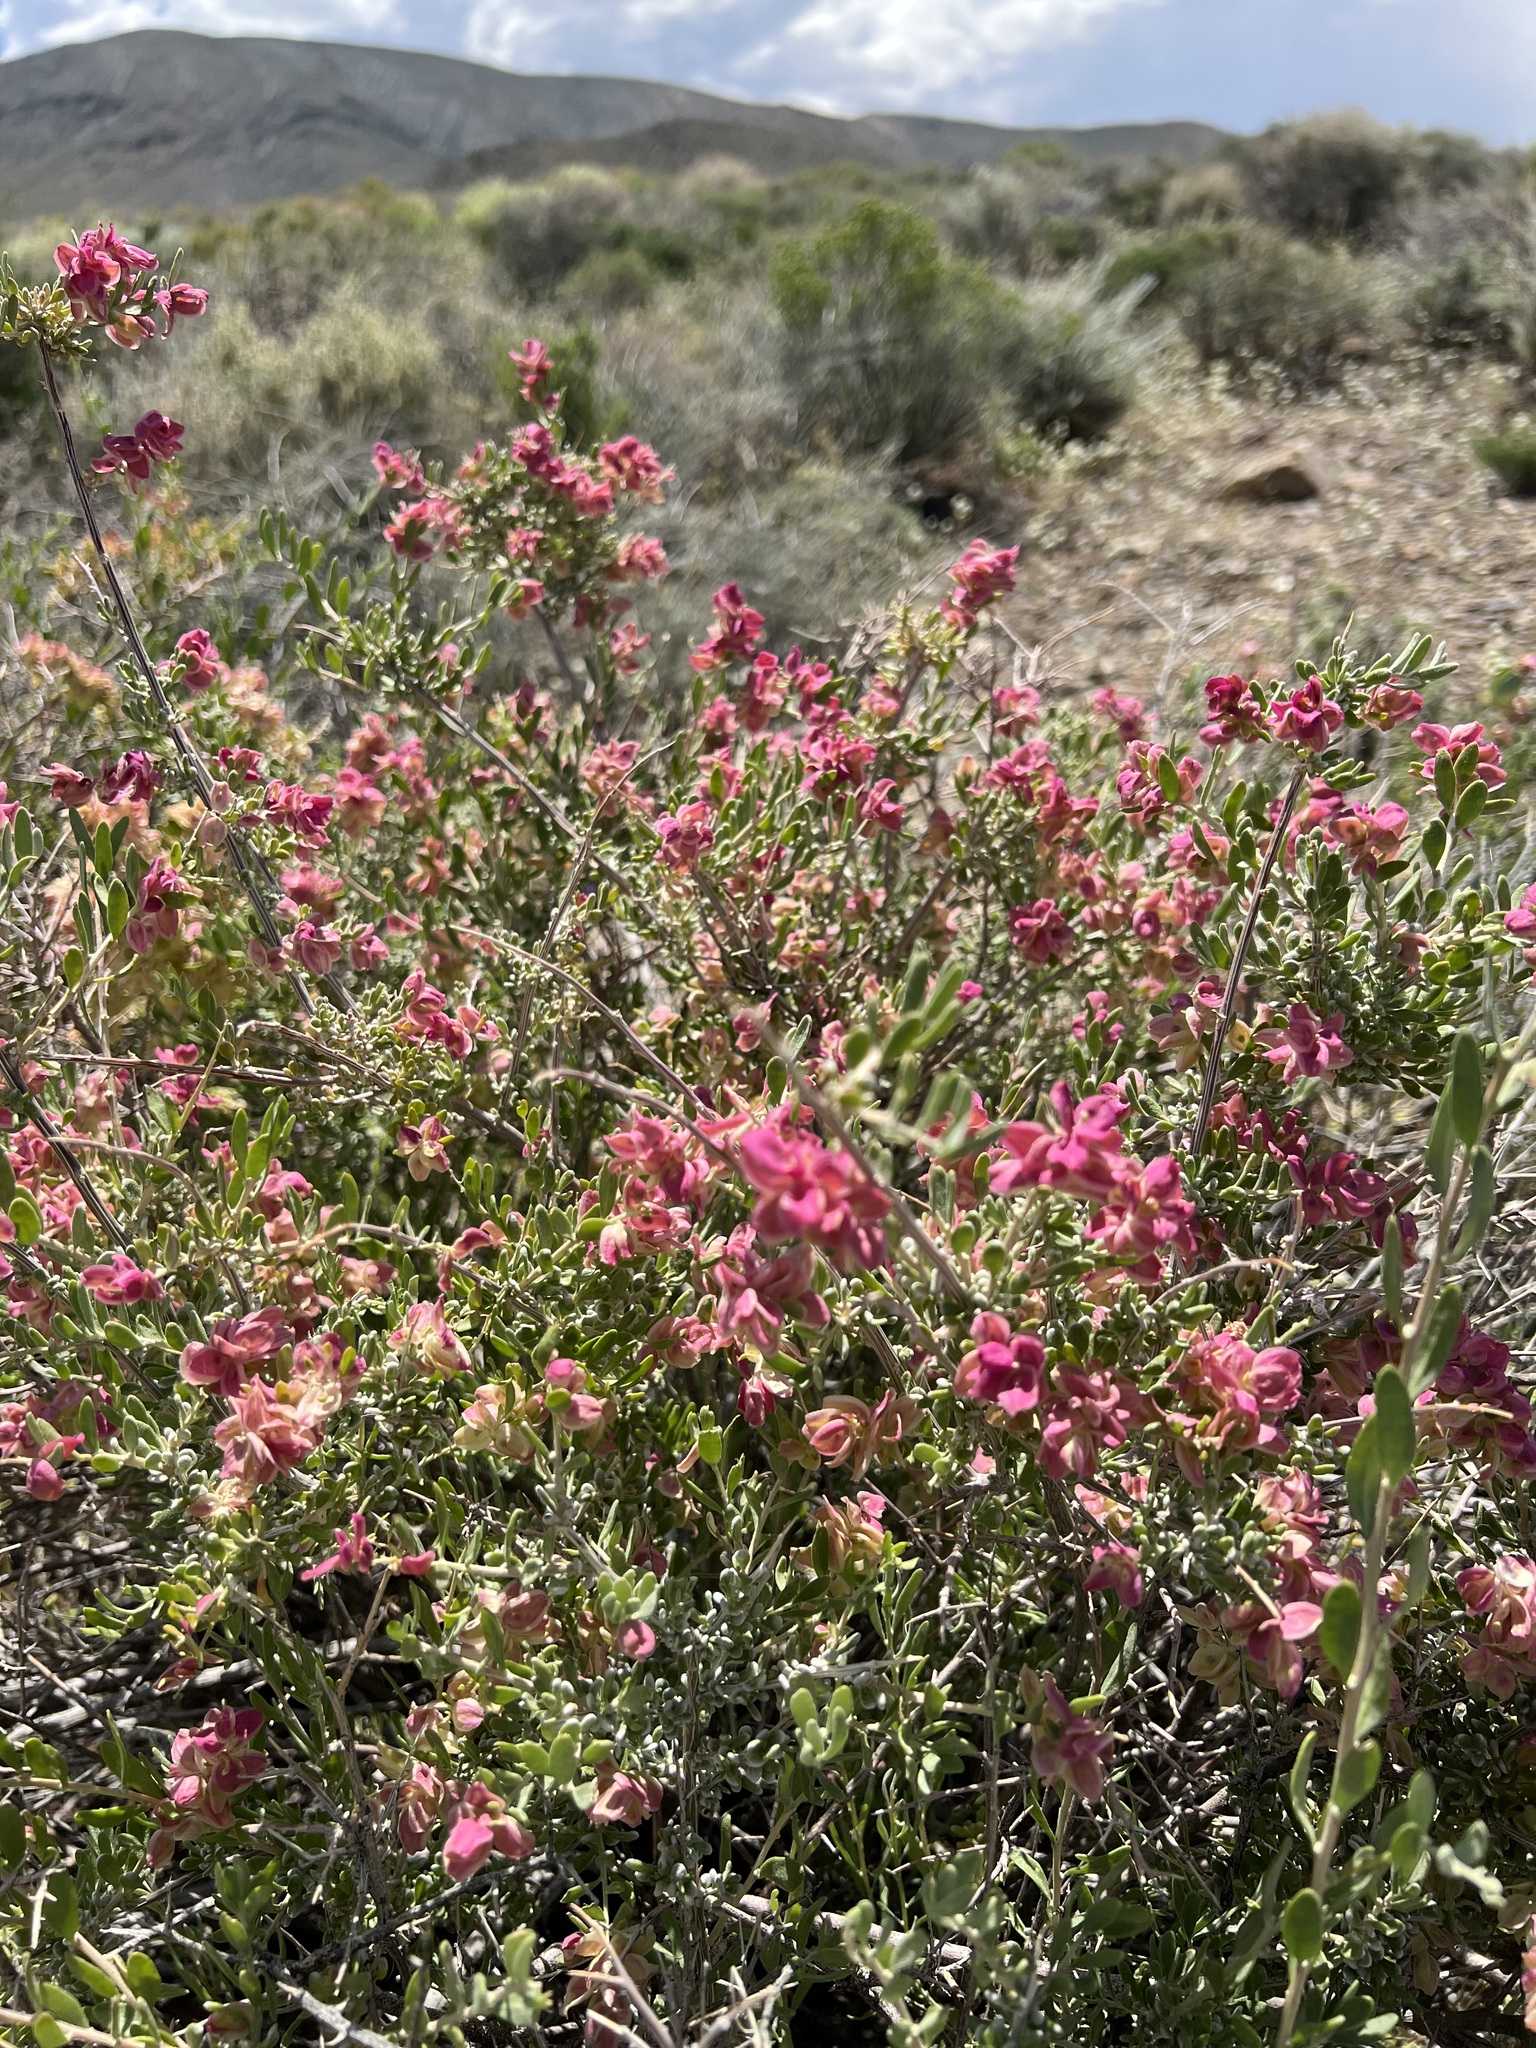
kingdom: Plantae
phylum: Tracheophyta
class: Magnoliopsida
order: Caryophyllales
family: Amaranthaceae
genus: Grayia
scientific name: Grayia spinosa
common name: Spiny hopsage
